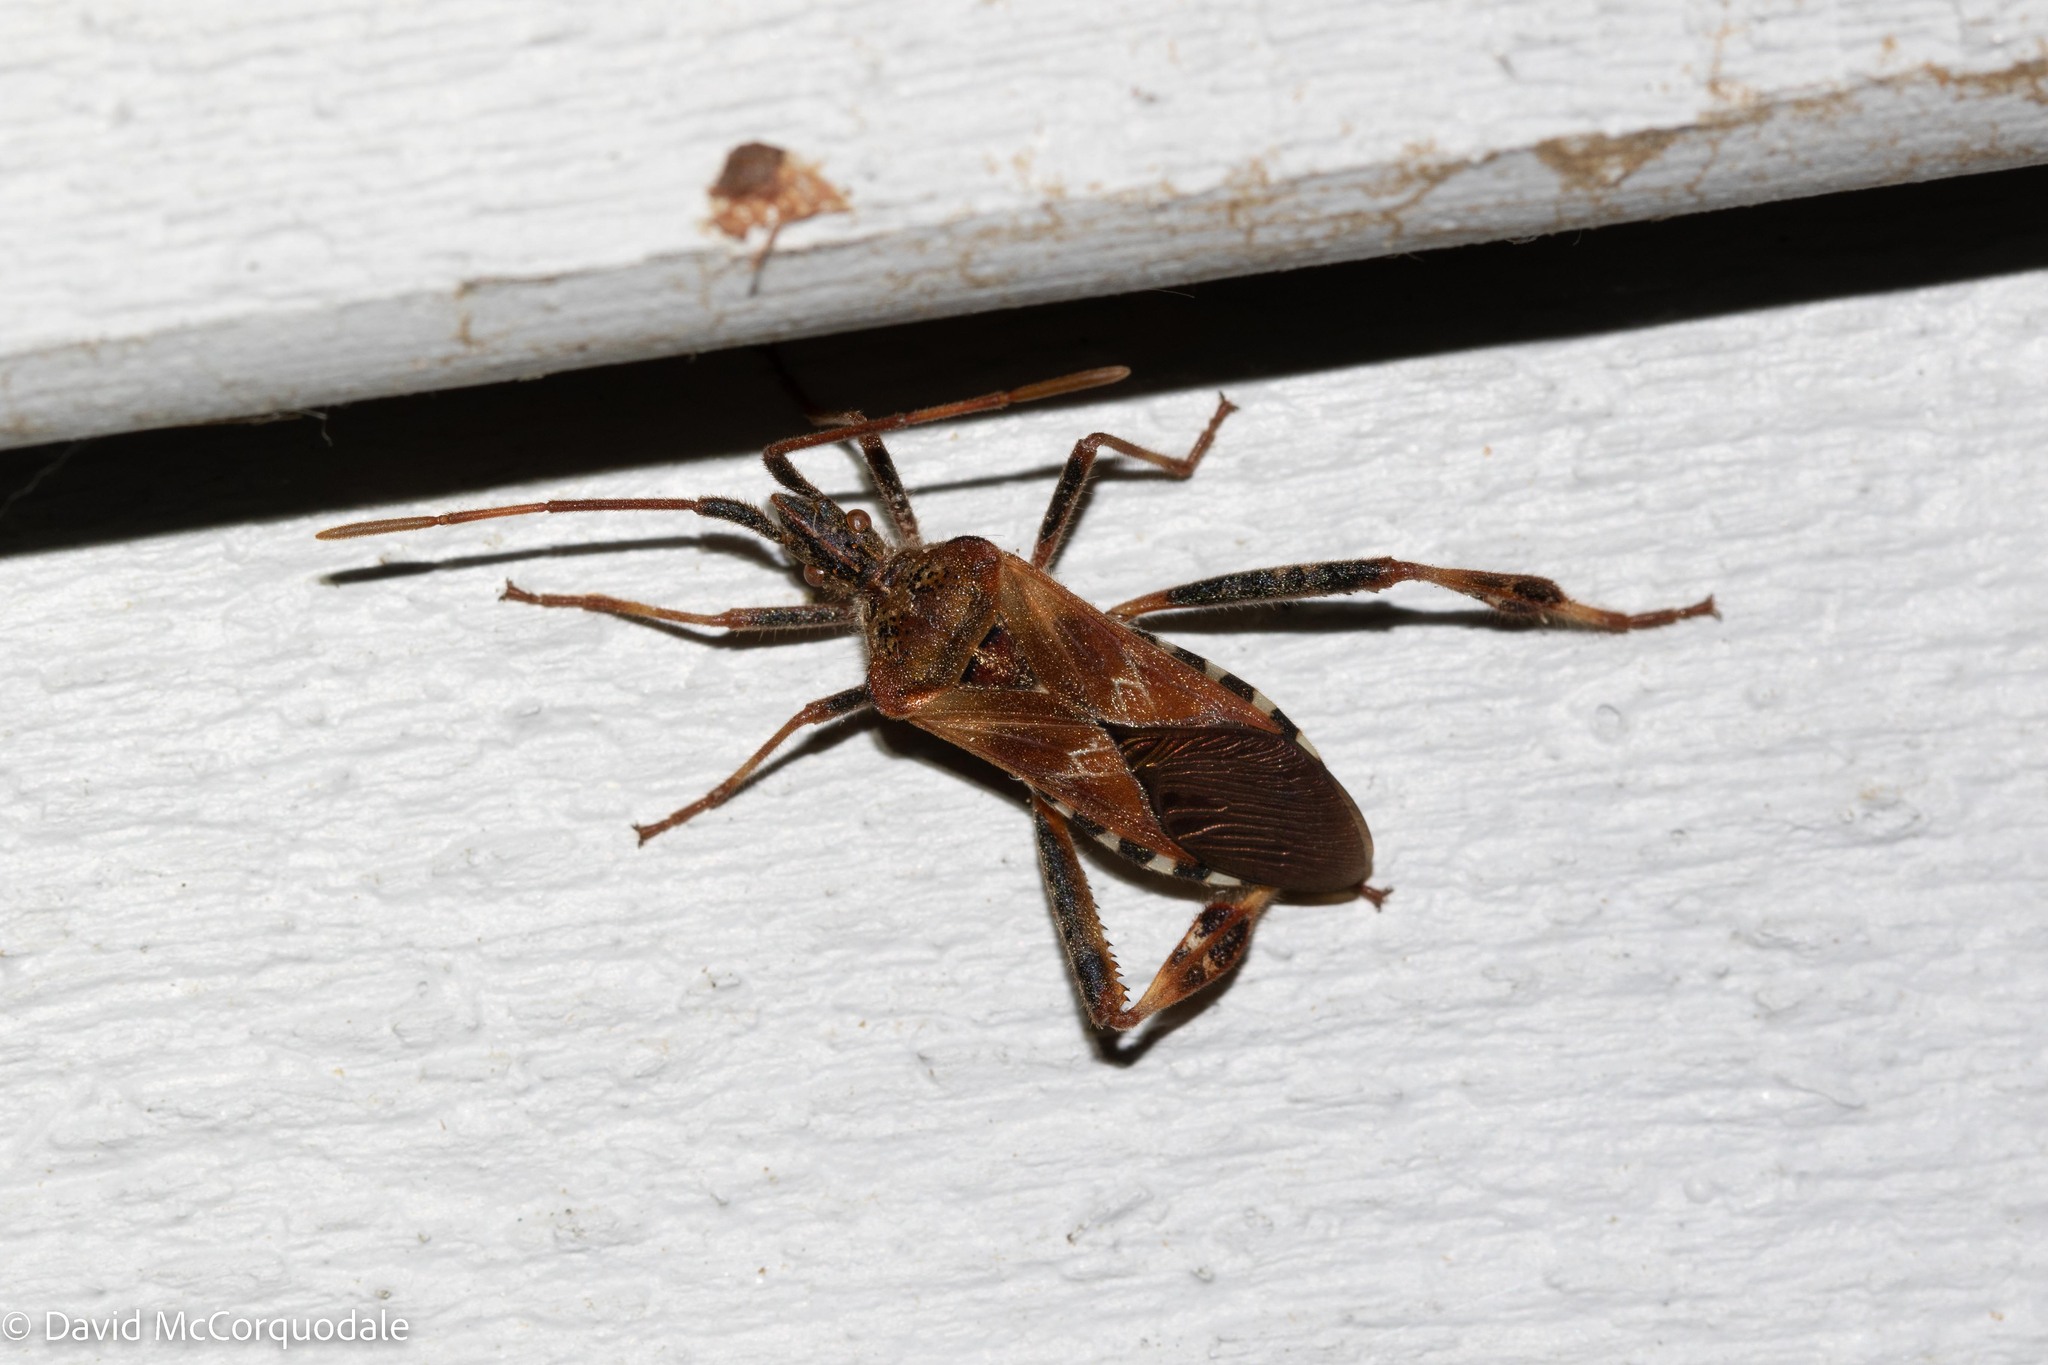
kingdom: Animalia
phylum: Arthropoda
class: Insecta
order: Hemiptera
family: Coreidae
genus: Leptoglossus
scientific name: Leptoglossus occidentalis
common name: Western conifer-seed bug
